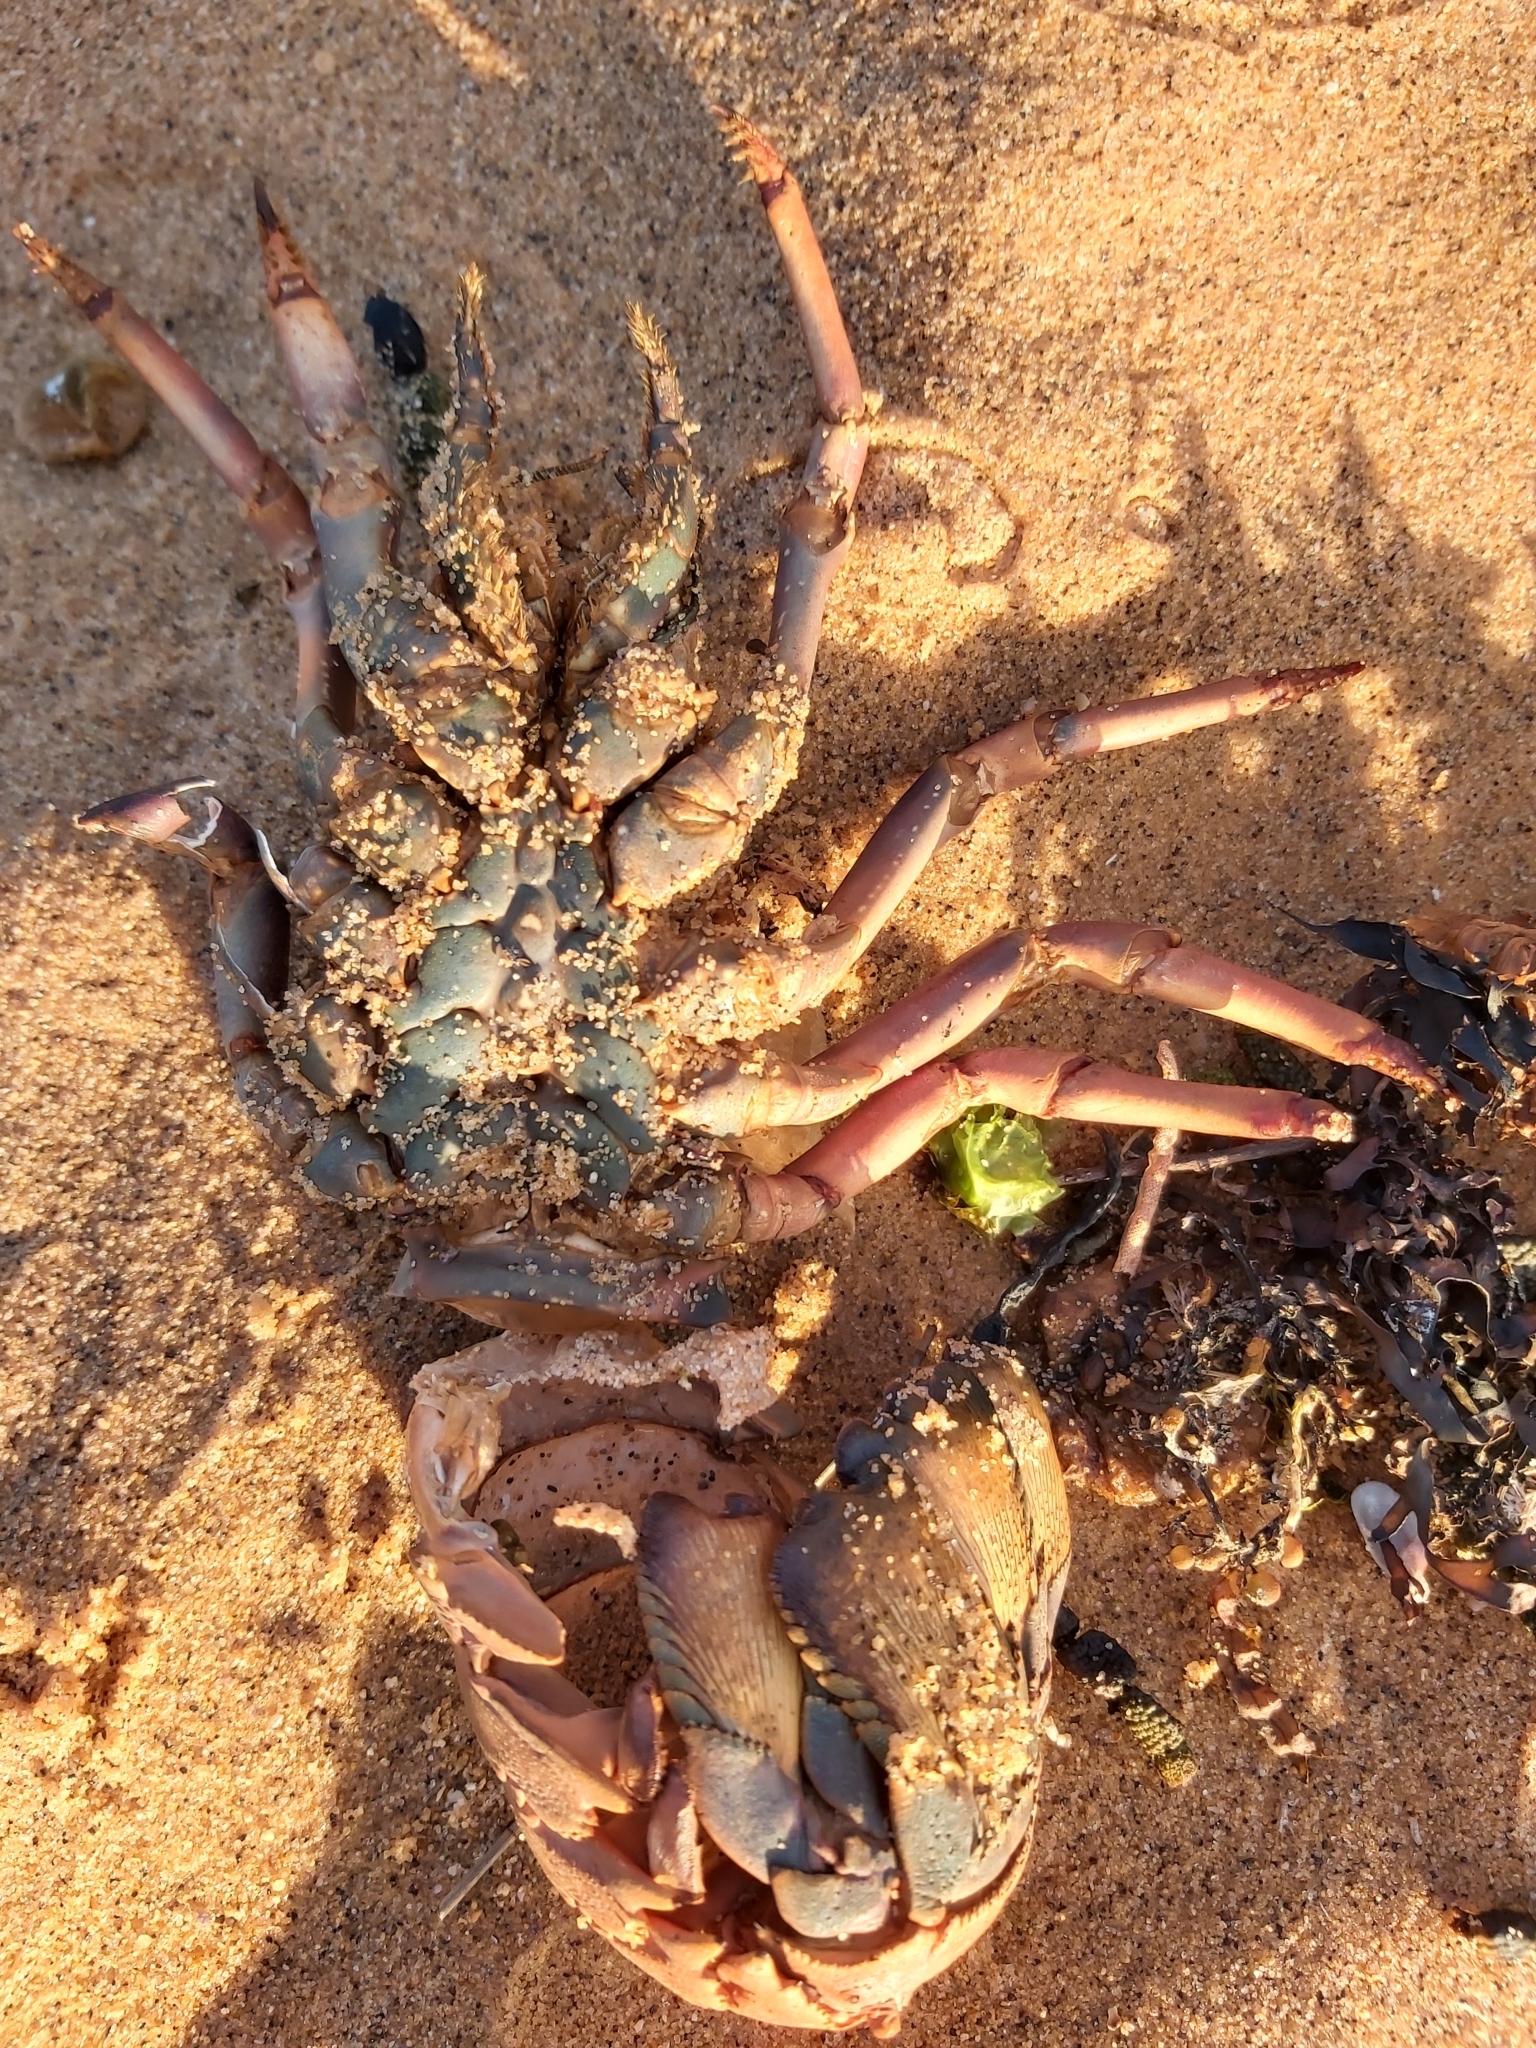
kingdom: Animalia
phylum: Arthropoda
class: Malacostraca
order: Decapoda
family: Palinuridae
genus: Sagmariasus
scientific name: Sagmariasus verreauxi
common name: Green rock lobster
